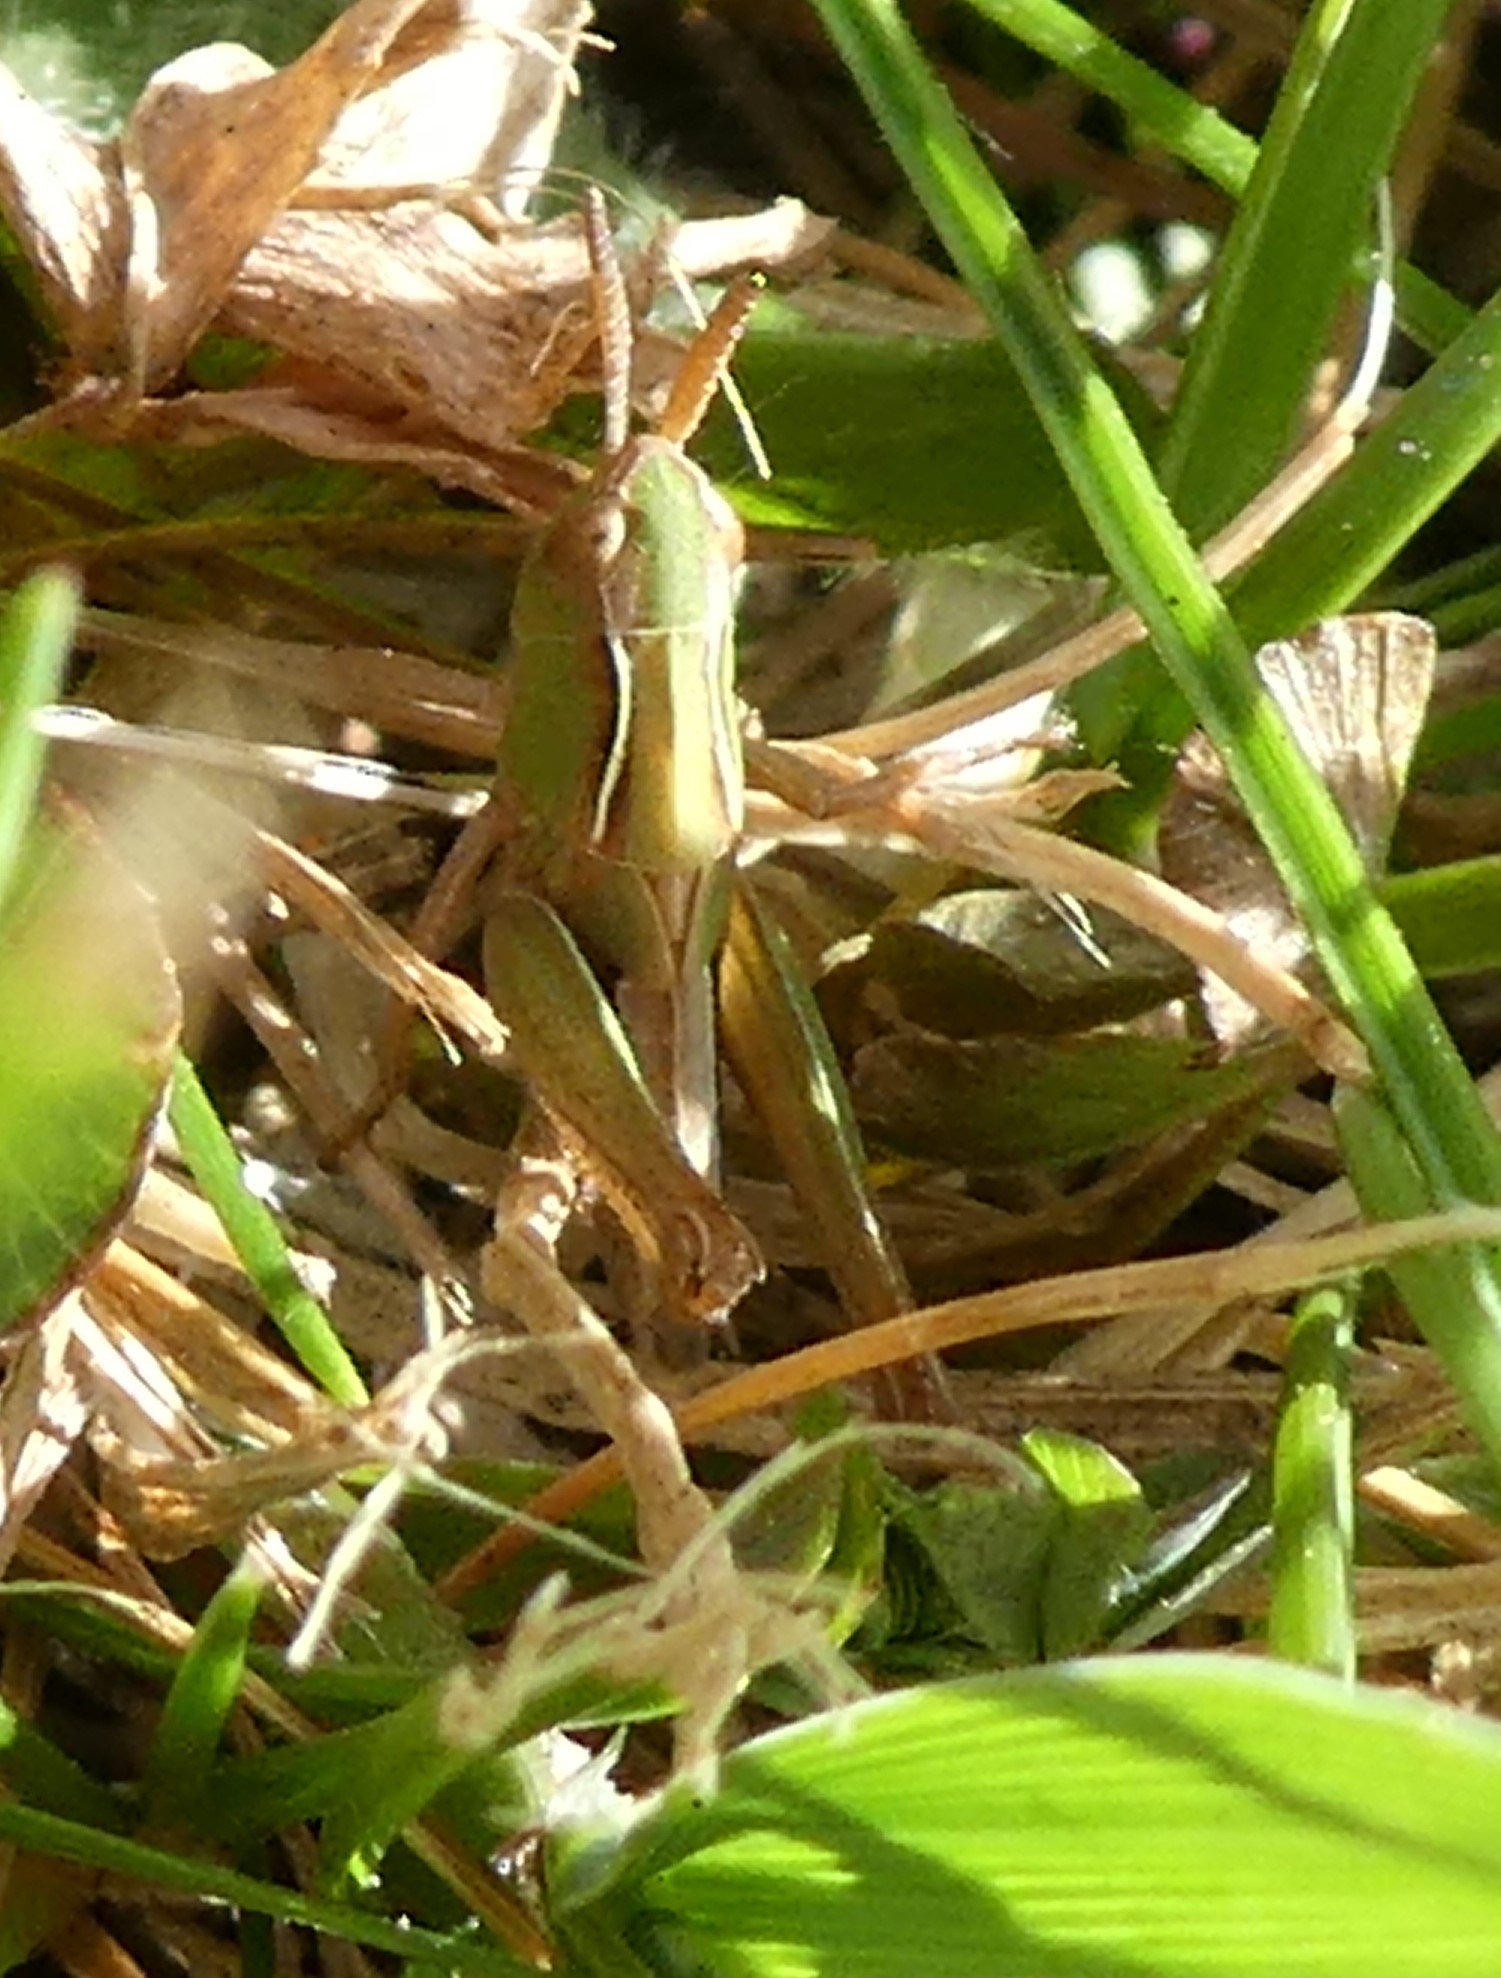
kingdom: Animalia
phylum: Arthropoda
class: Insecta
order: Orthoptera
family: Acrididae
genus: Omocestus
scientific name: Omocestus viridulus
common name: Common green grasshopper
